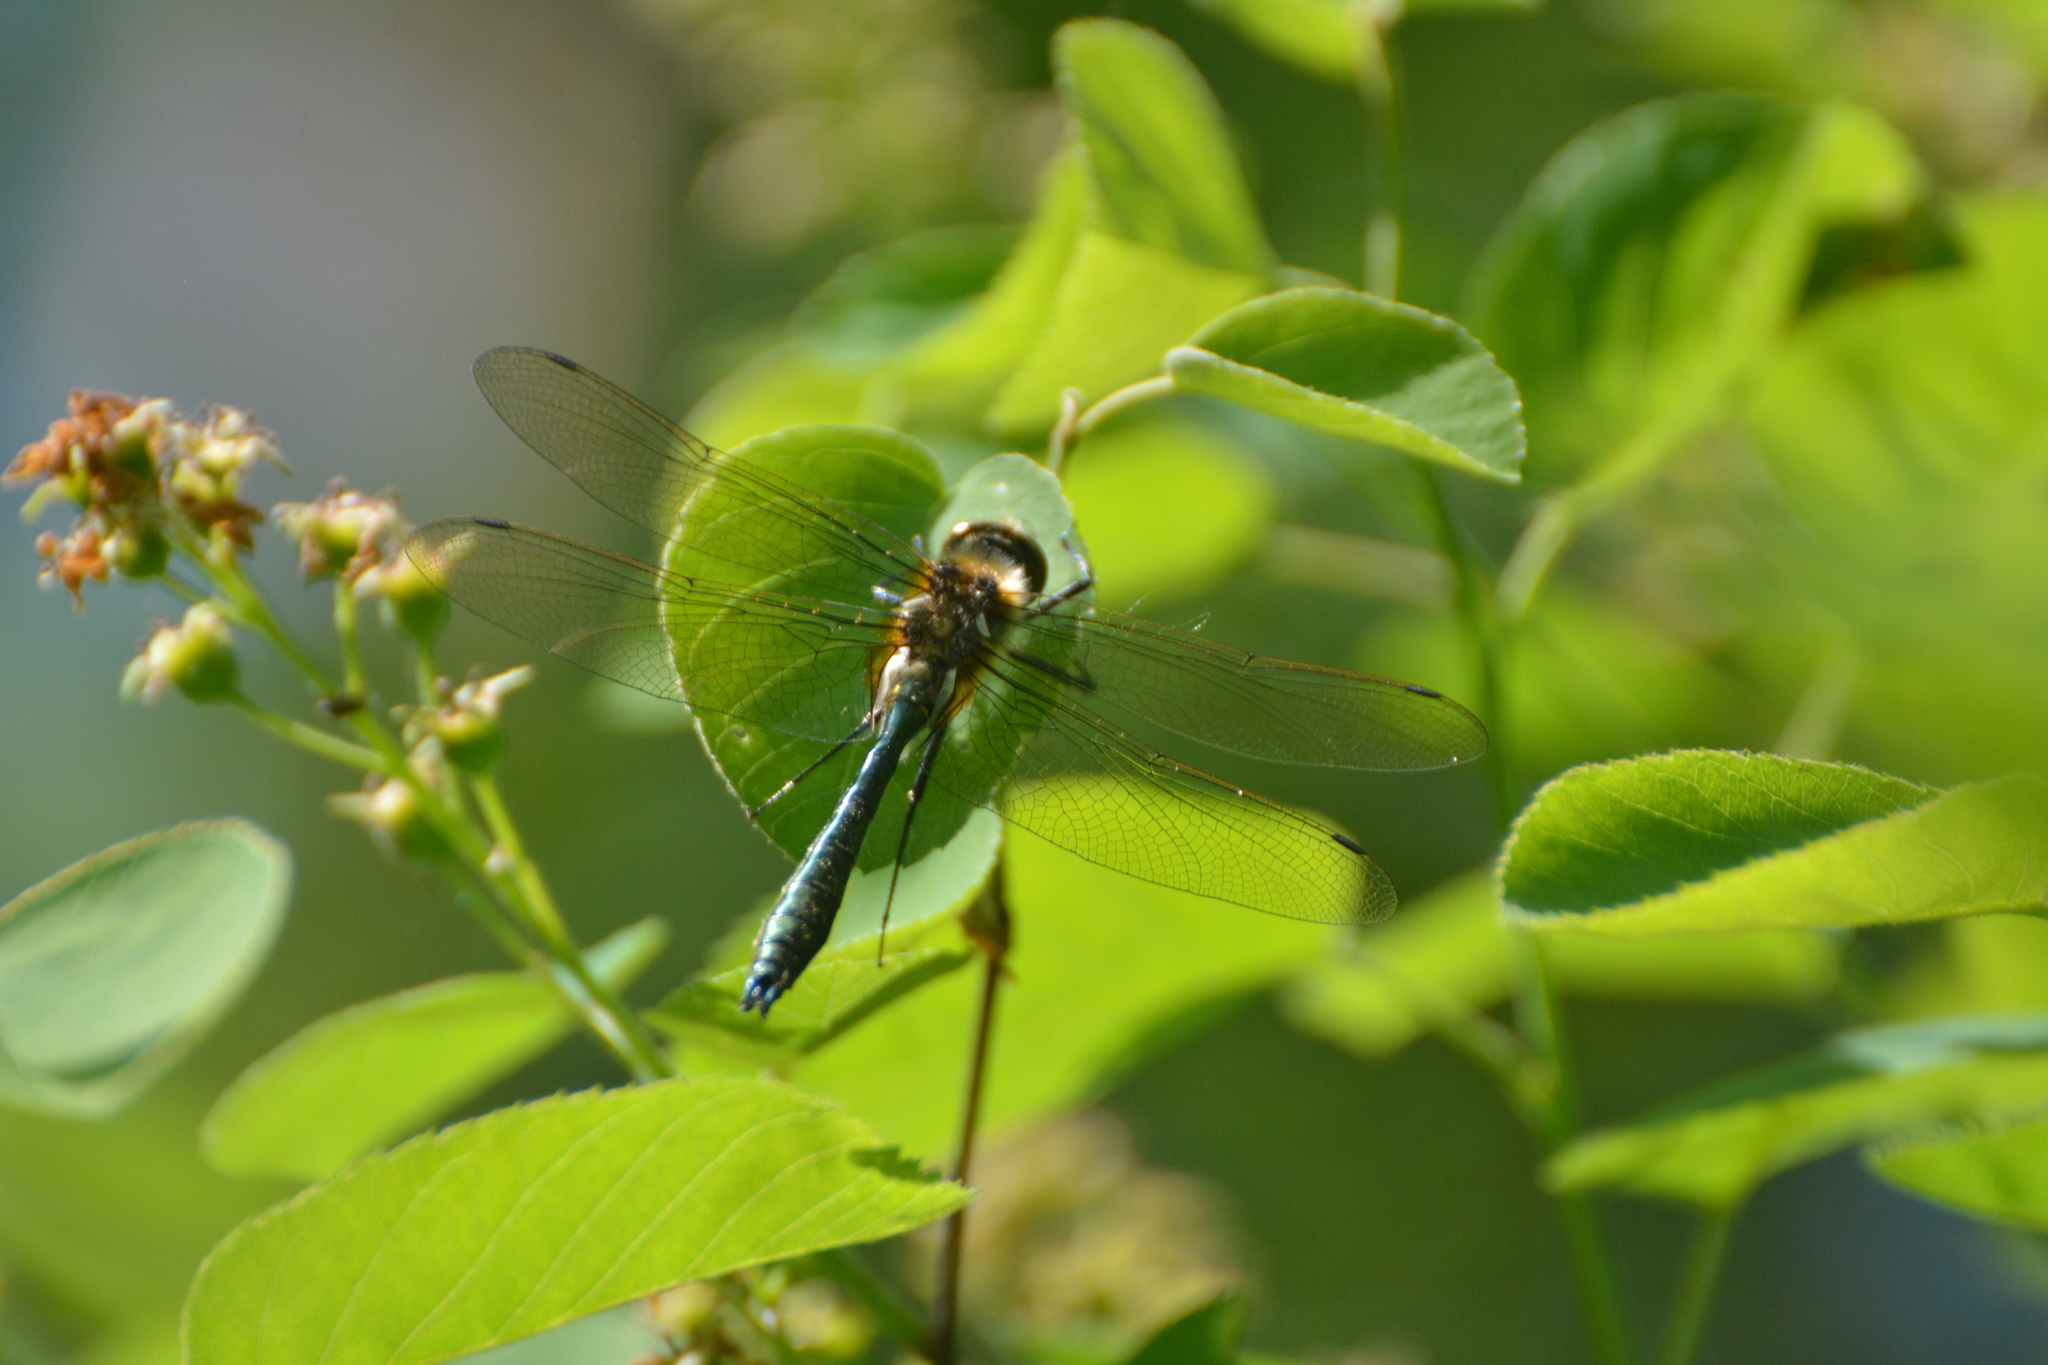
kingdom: Animalia
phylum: Arthropoda
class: Insecta
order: Odonata
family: Corduliidae
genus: Cordulia
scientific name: Cordulia aenea
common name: Downy emerald
